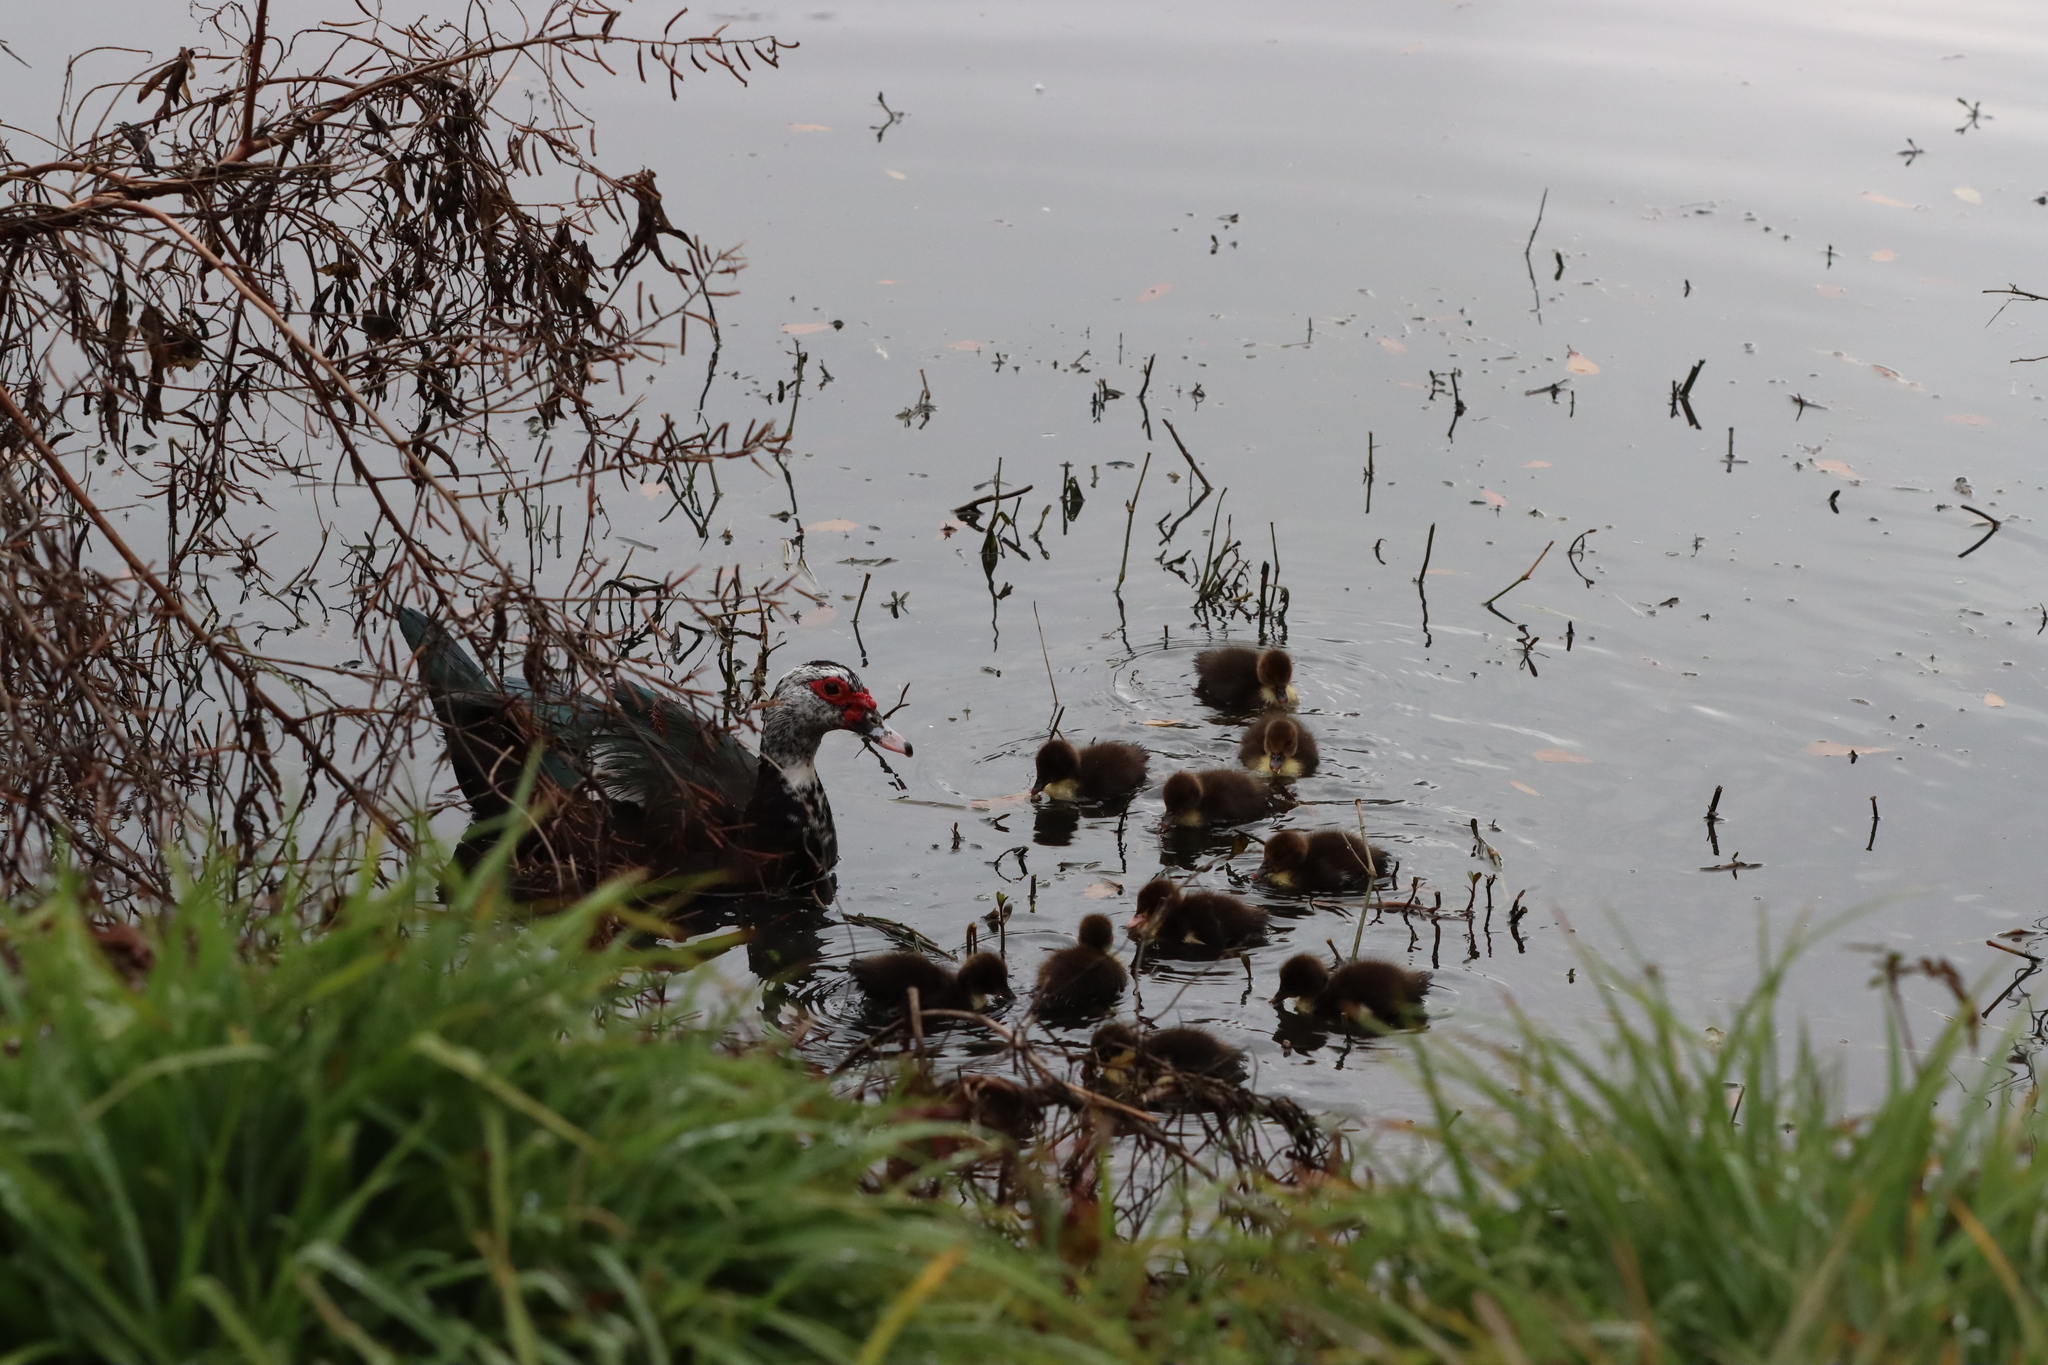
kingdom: Animalia
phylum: Chordata
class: Aves
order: Anseriformes
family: Anatidae
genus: Cairina
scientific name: Cairina moschata
